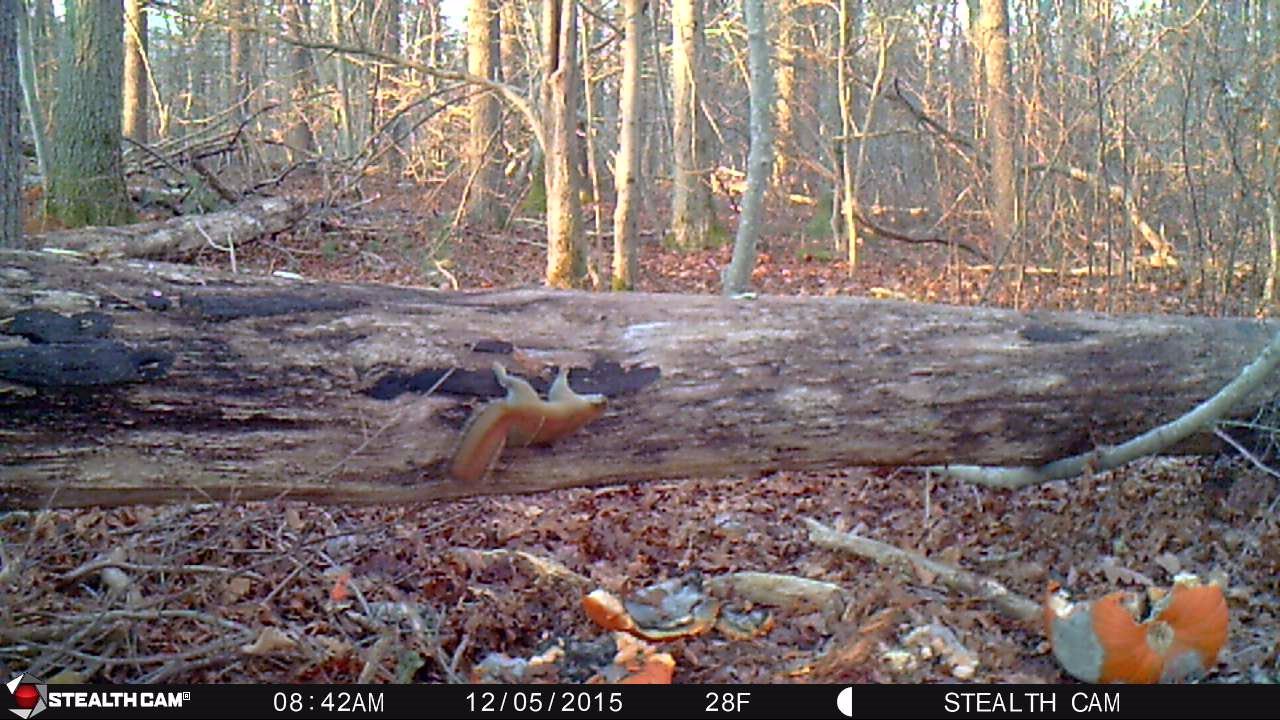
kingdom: Animalia
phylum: Chordata
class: Mammalia
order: Rodentia
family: Sciuridae
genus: Tamiasciurus
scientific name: Tamiasciurus hudsonicus
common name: Red squirrel
